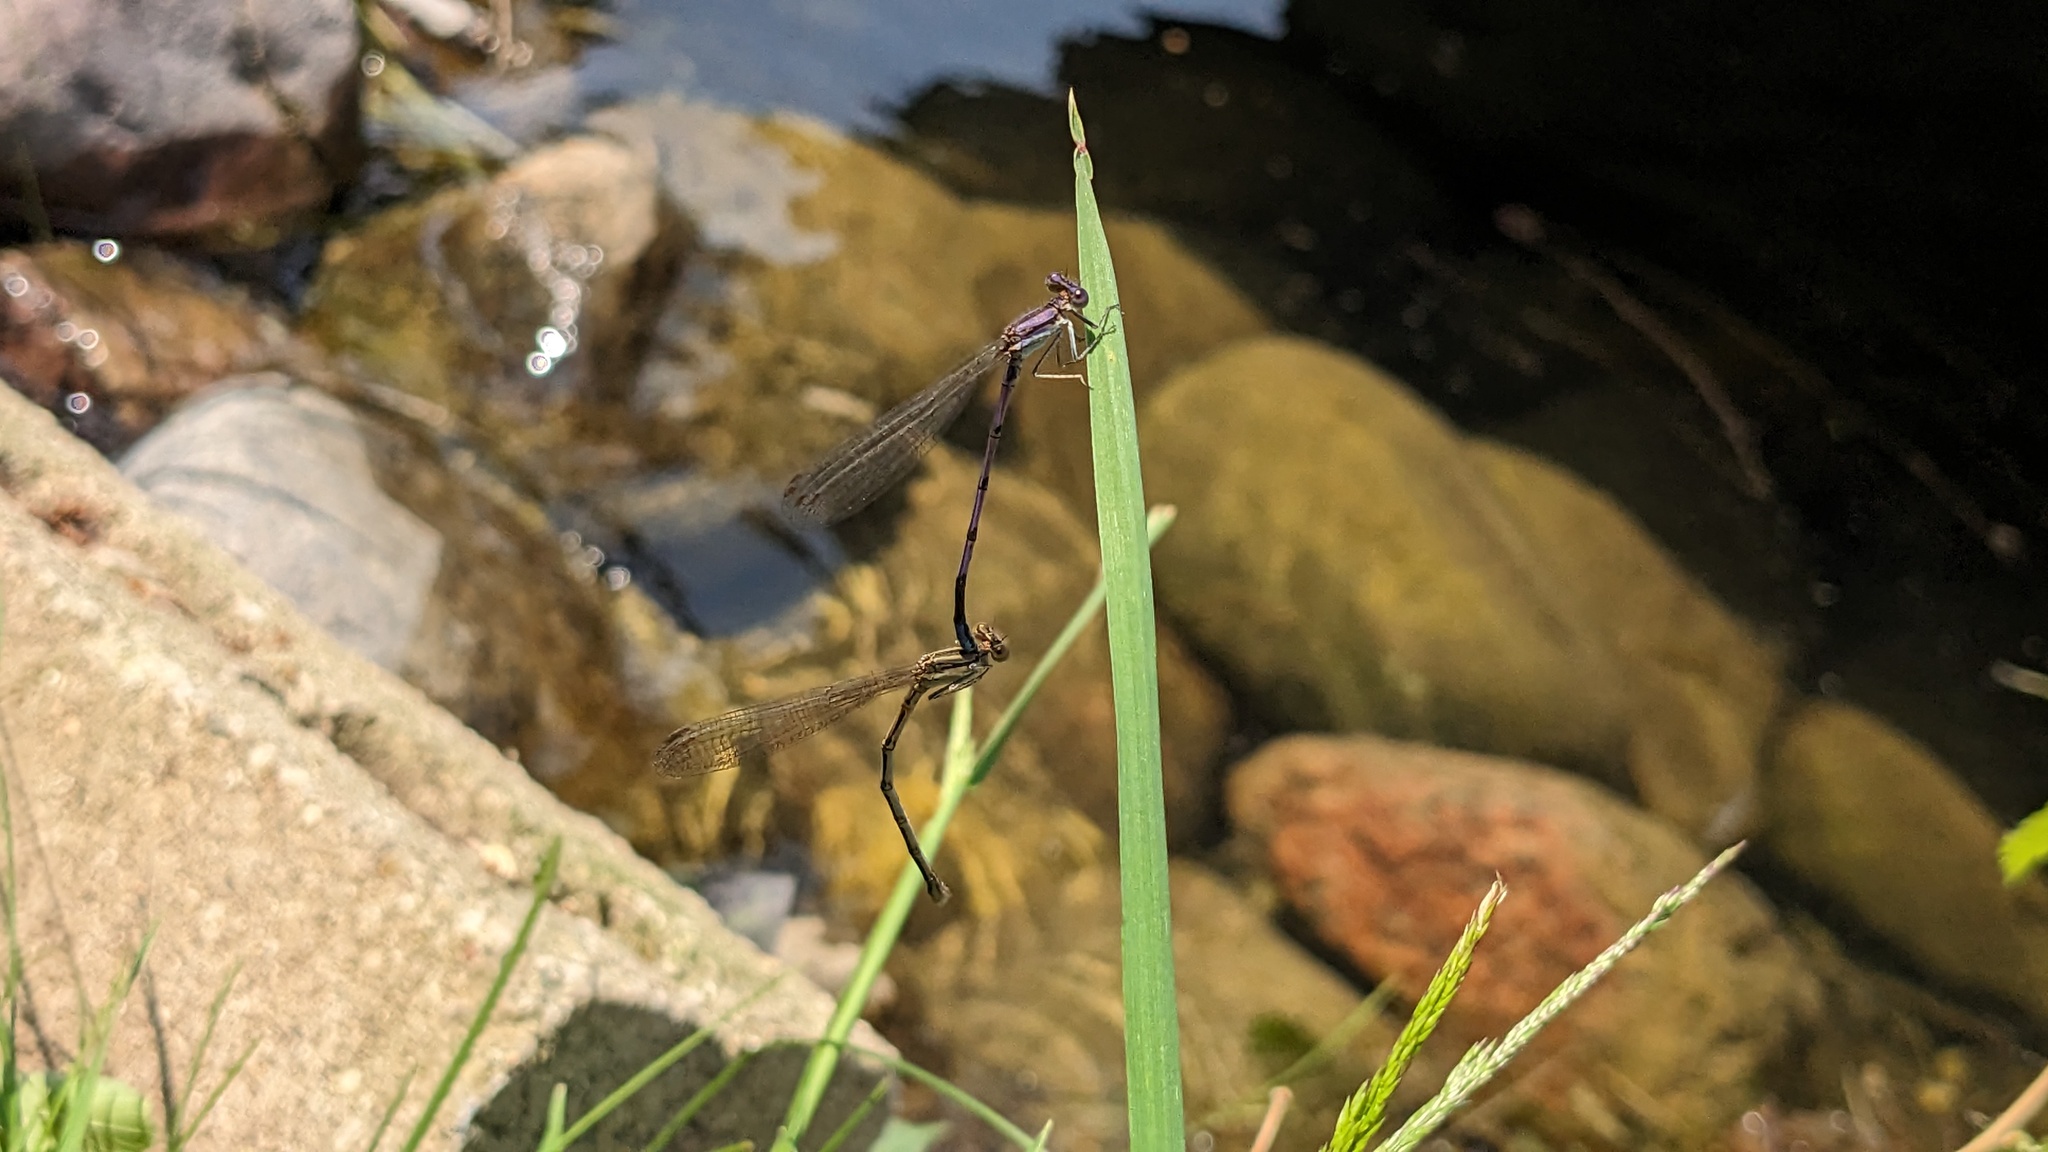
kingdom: Animalia
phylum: Arthropoda
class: Insecta
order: Odonata
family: Coenagrionidae
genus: Argia
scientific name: Argia fumipennis
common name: Variable dancer
